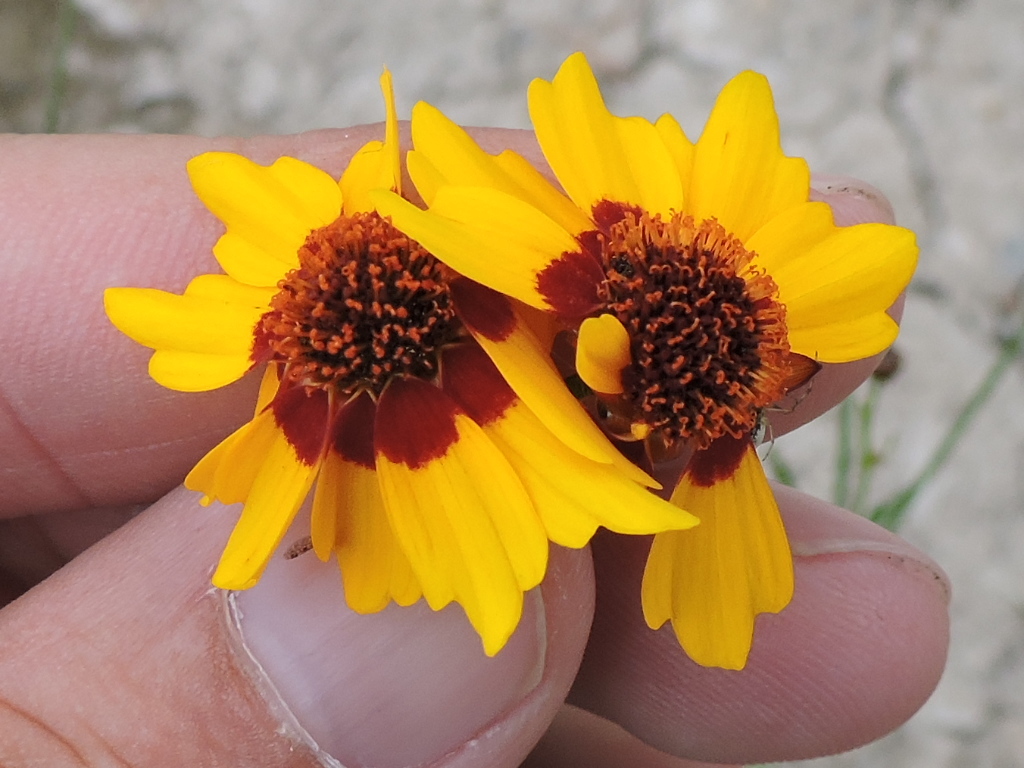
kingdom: Plantae
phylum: Tracheophyta
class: Magnoliopsida
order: Asterales
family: Asteraceae
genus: Coreopsis
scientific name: Coreopsis tinctoria
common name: Garden tickseed
